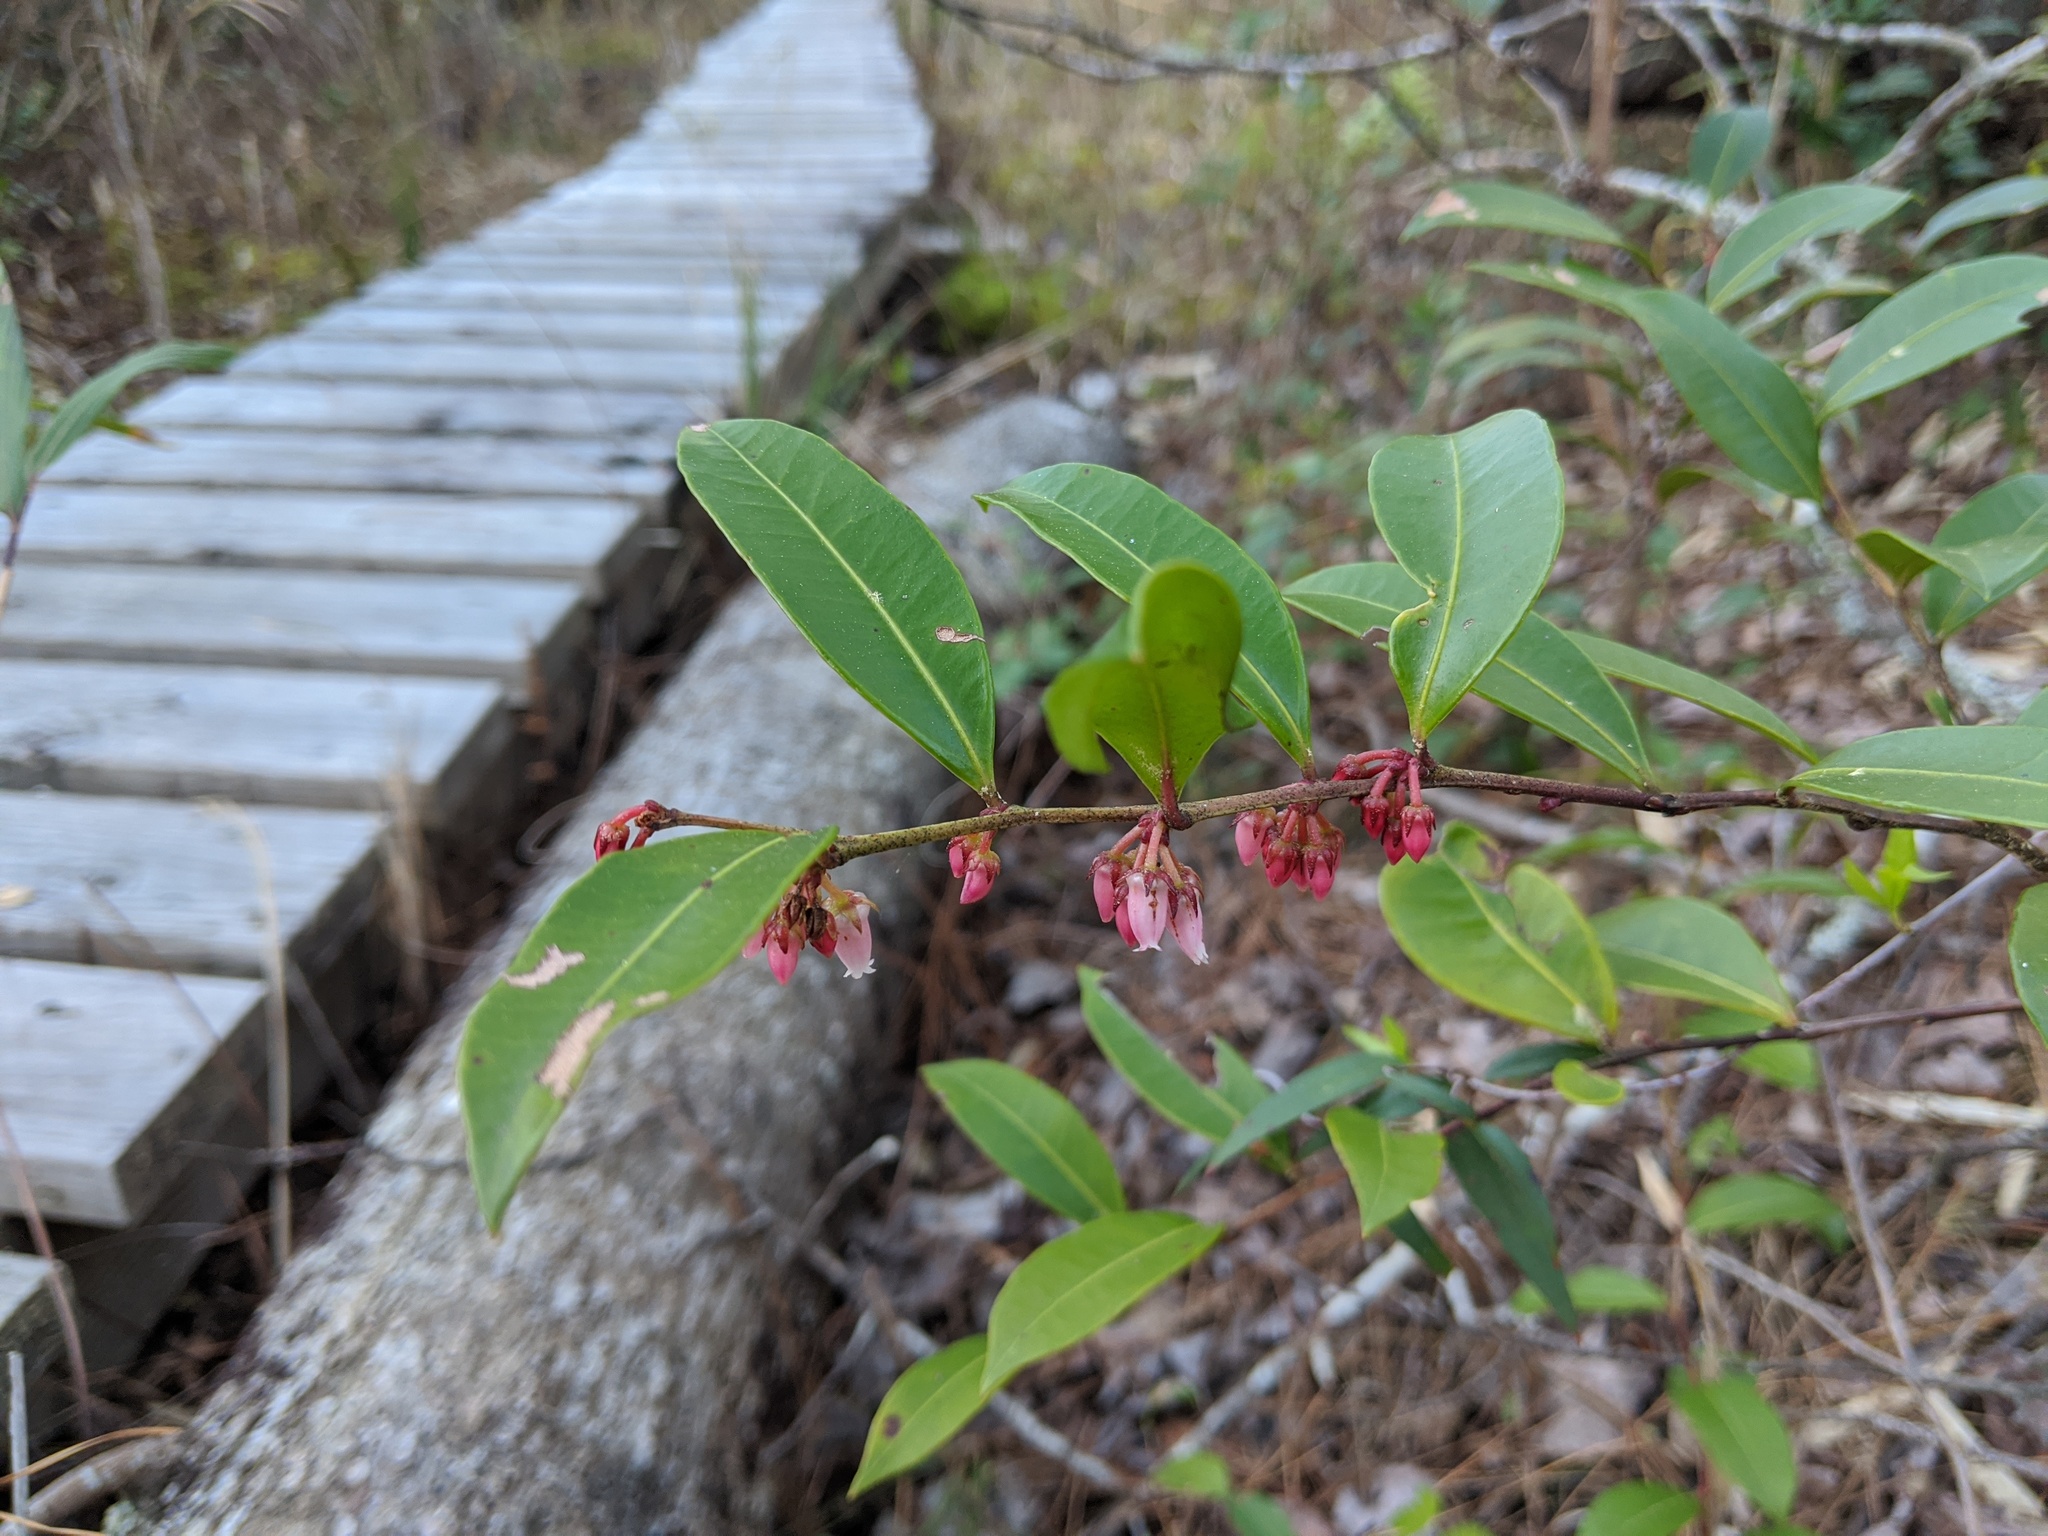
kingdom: Plantae
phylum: Tracheophyta
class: Magnoliopsida
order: Ericales
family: Ericaceae
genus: Lyonia
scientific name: Lyonia lucida
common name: Fetterbush
